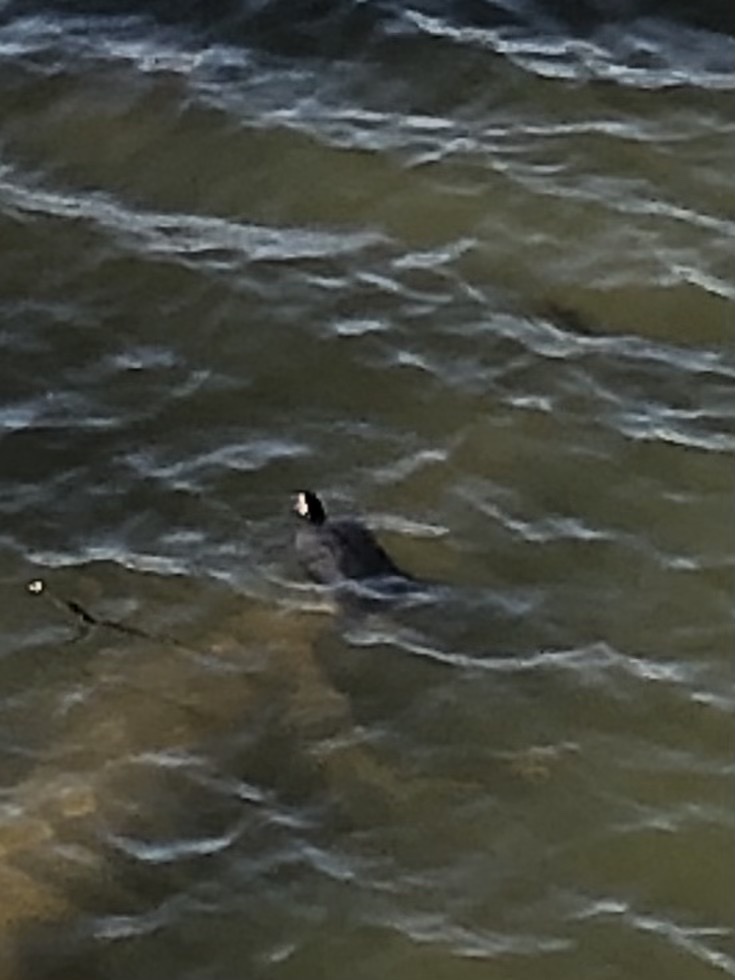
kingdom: Animalia
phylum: Chordata
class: Testudines
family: Emydidae
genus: Trachemys
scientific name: Trachemys scripta
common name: Slider
